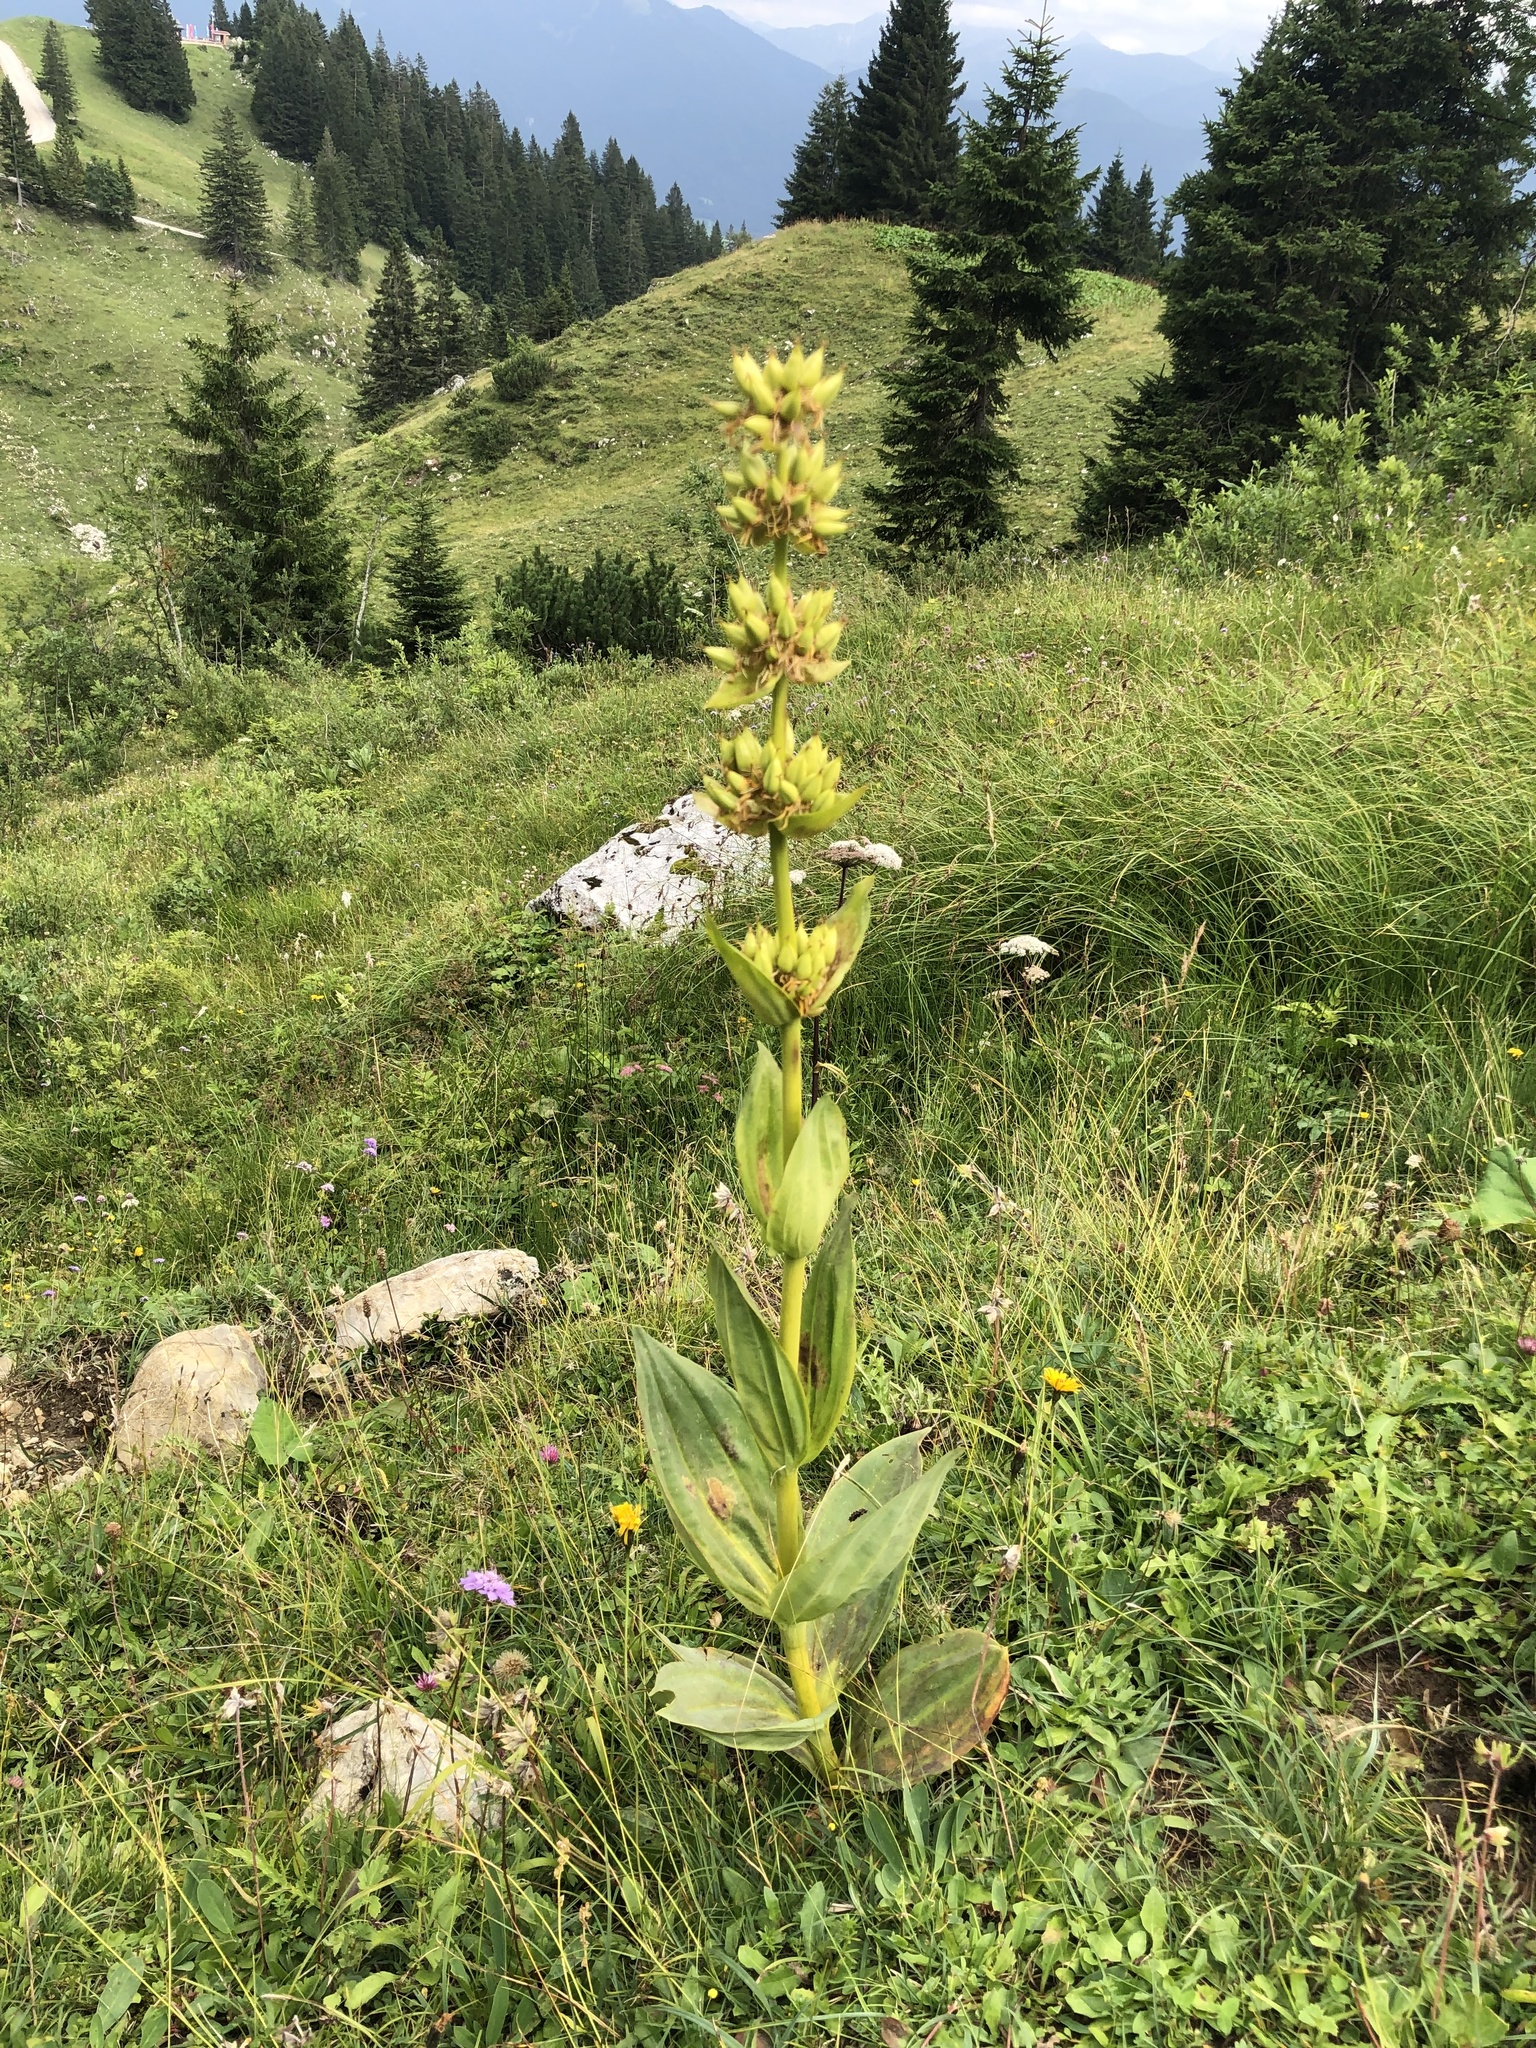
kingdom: Plantae
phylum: Tracheophyta
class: Magnoliopsida
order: Gentianales
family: Gentianaceae
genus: Gentiana
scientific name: Gentiana lutea
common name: Great yellow gentian
